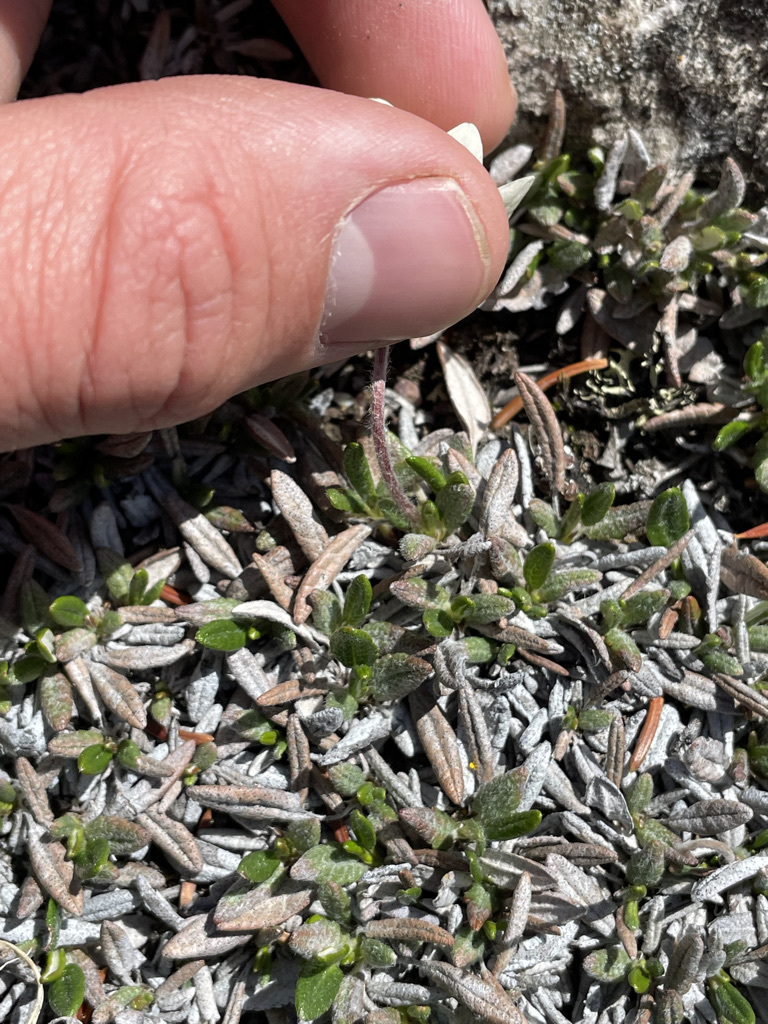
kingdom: Plantae
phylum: Tracheophyta
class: Magnoliopsida
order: Rosales
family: Rosaceae
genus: Dryas
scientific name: Dryas integrifolia
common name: Entire-leaved mountain avens
